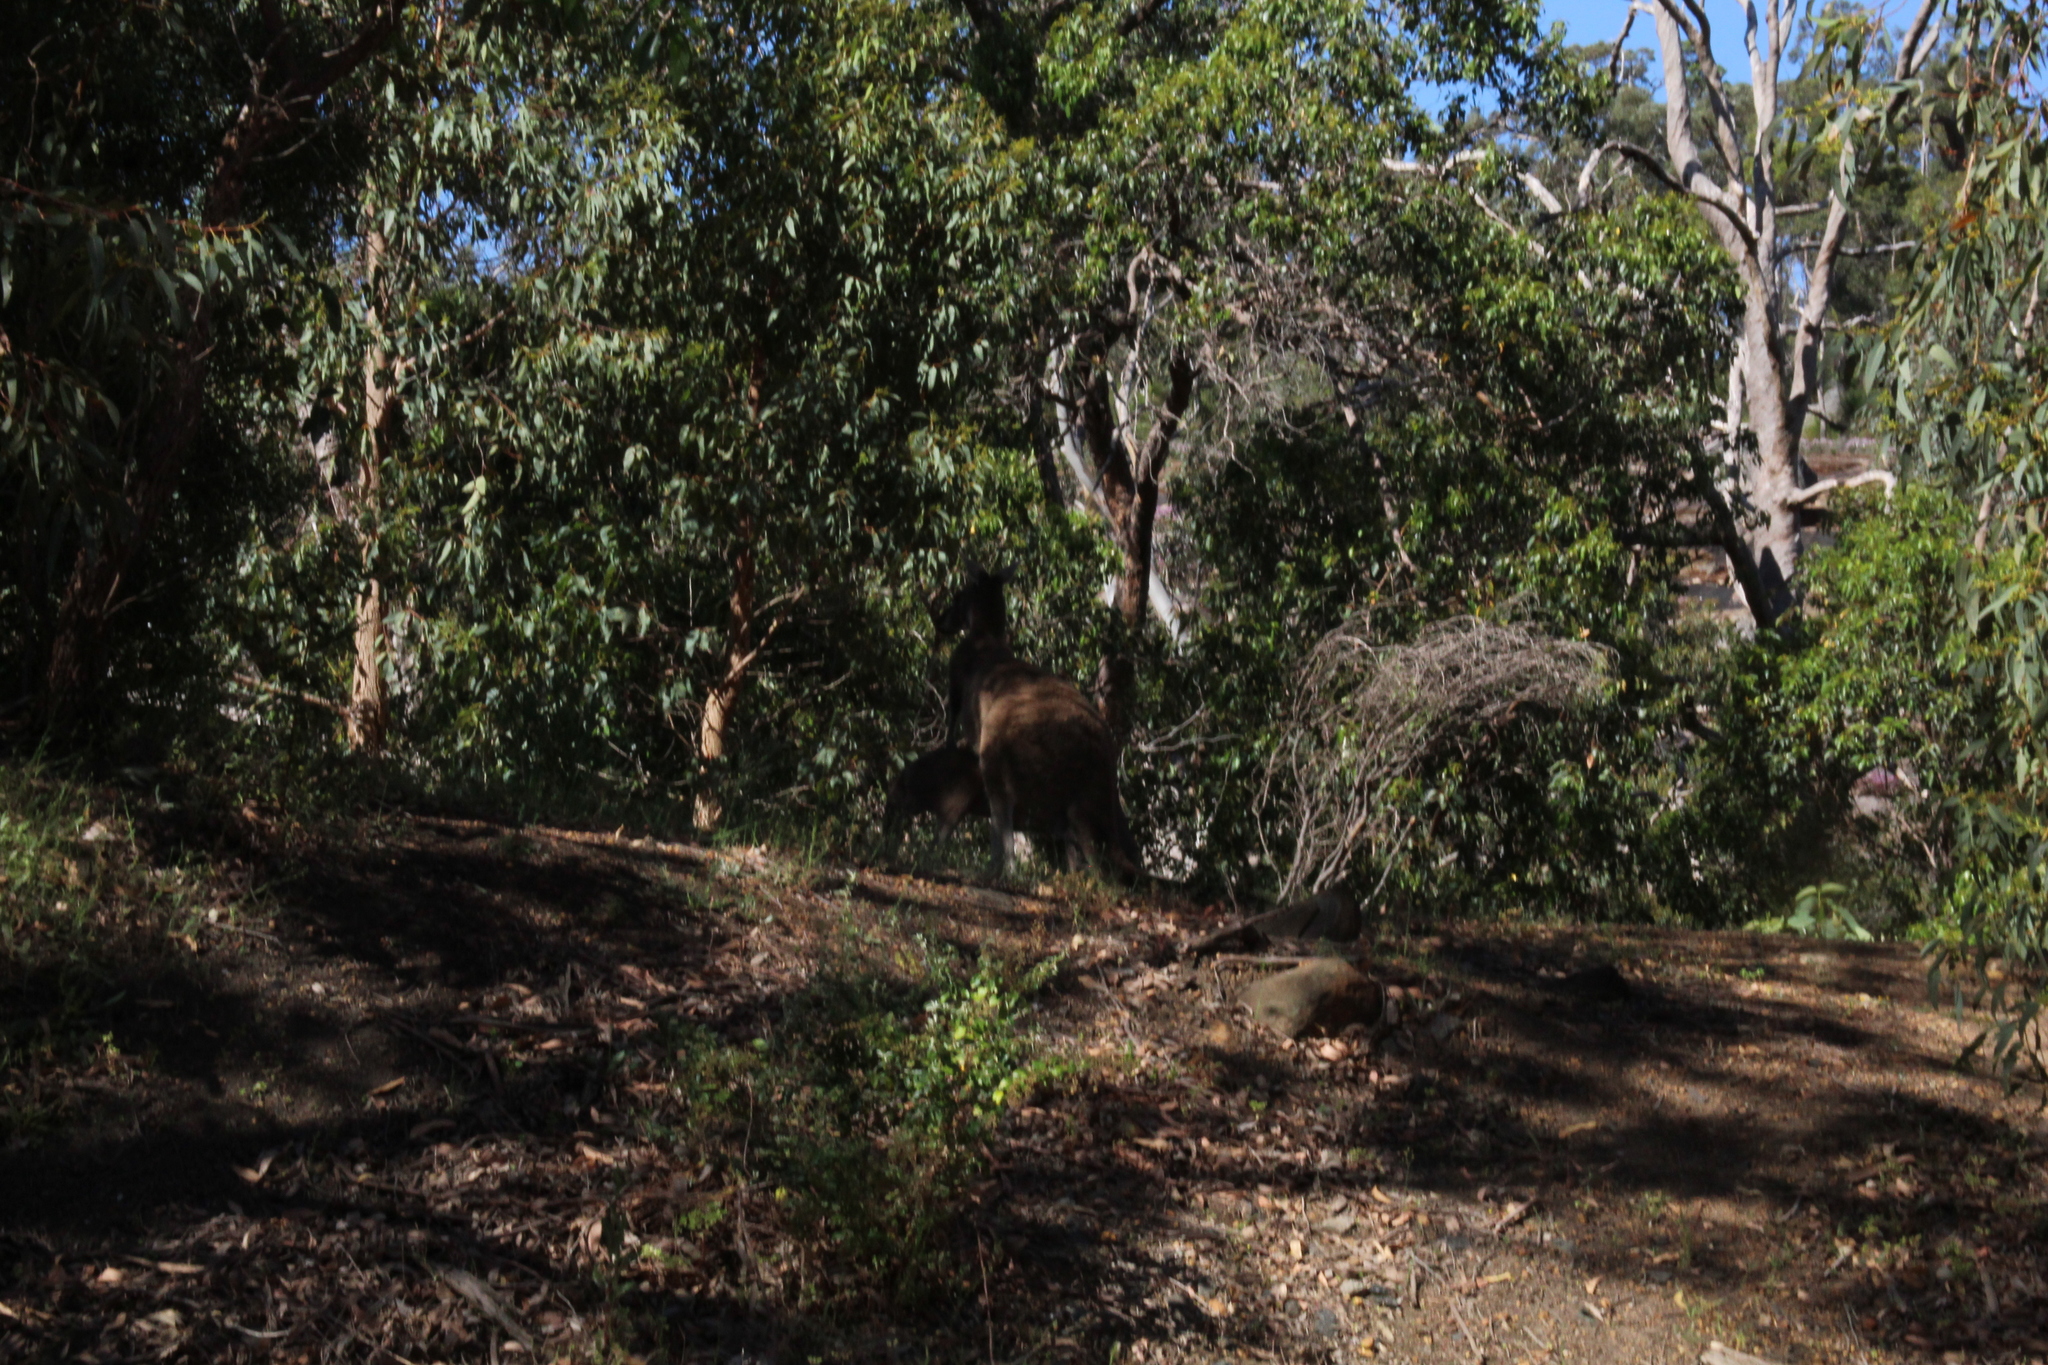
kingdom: Animalia
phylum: Chordata
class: Mammalia
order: Diprotodontia
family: Macropodidae
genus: Macropus
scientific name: Macropus fuliginosus
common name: Western grey kangaroo
